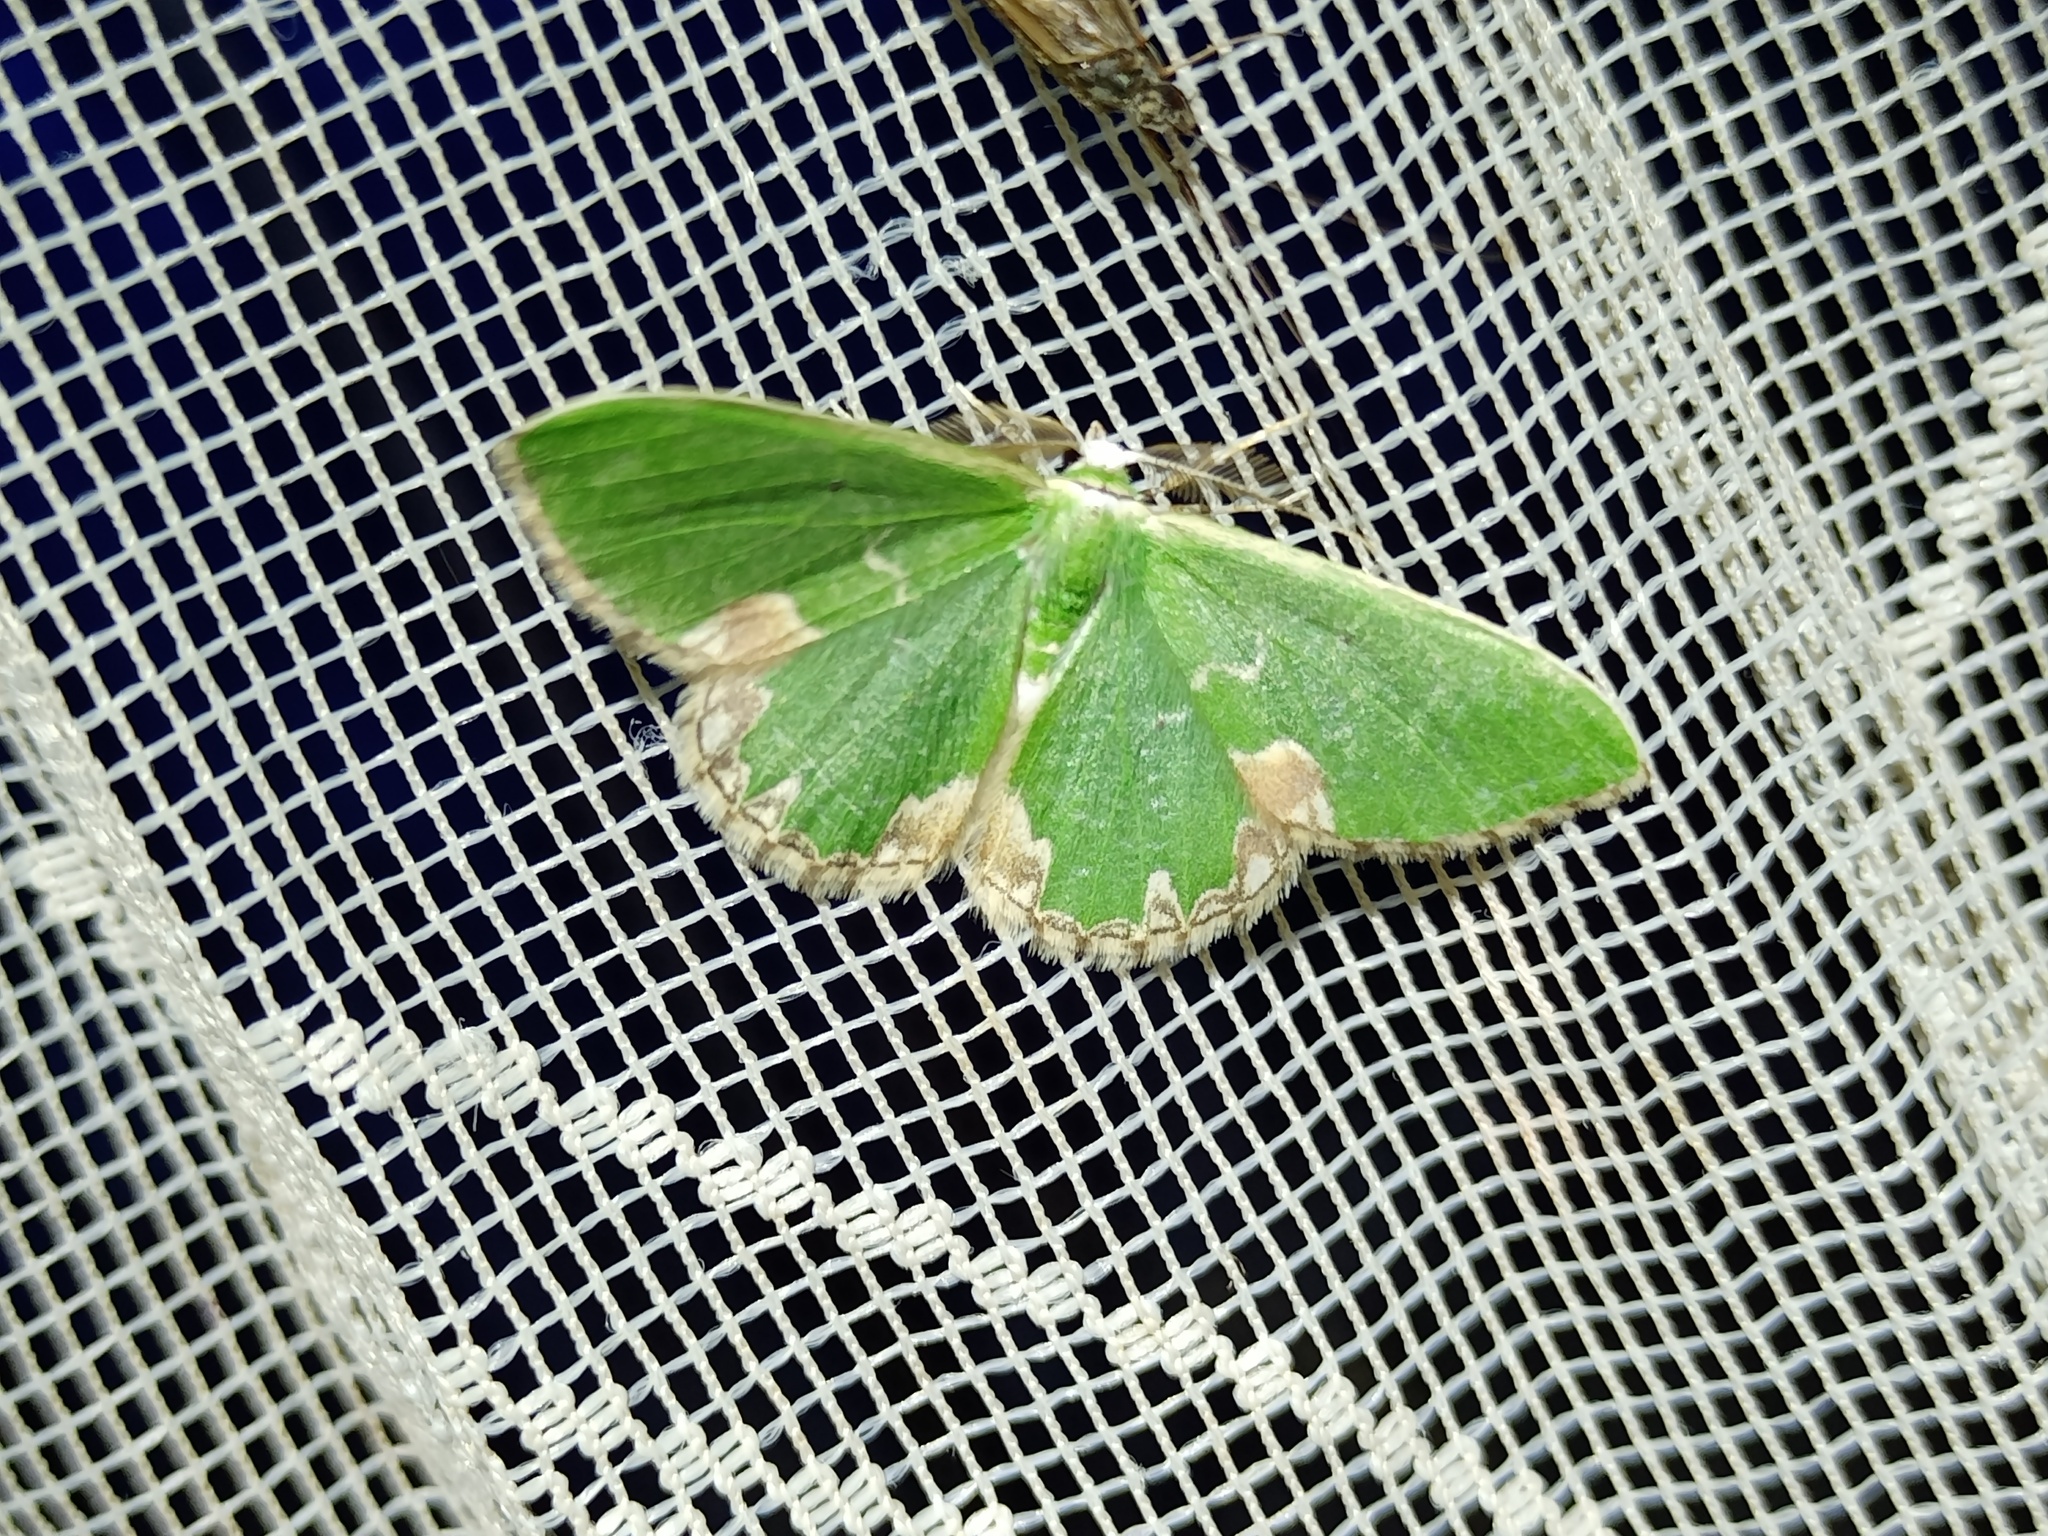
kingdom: Animalia
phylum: Arthropoda
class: Insecta
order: Lepidoptera
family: Geometridae
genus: Comibaena
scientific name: Comibaena bajularia
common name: Blotched emerald
